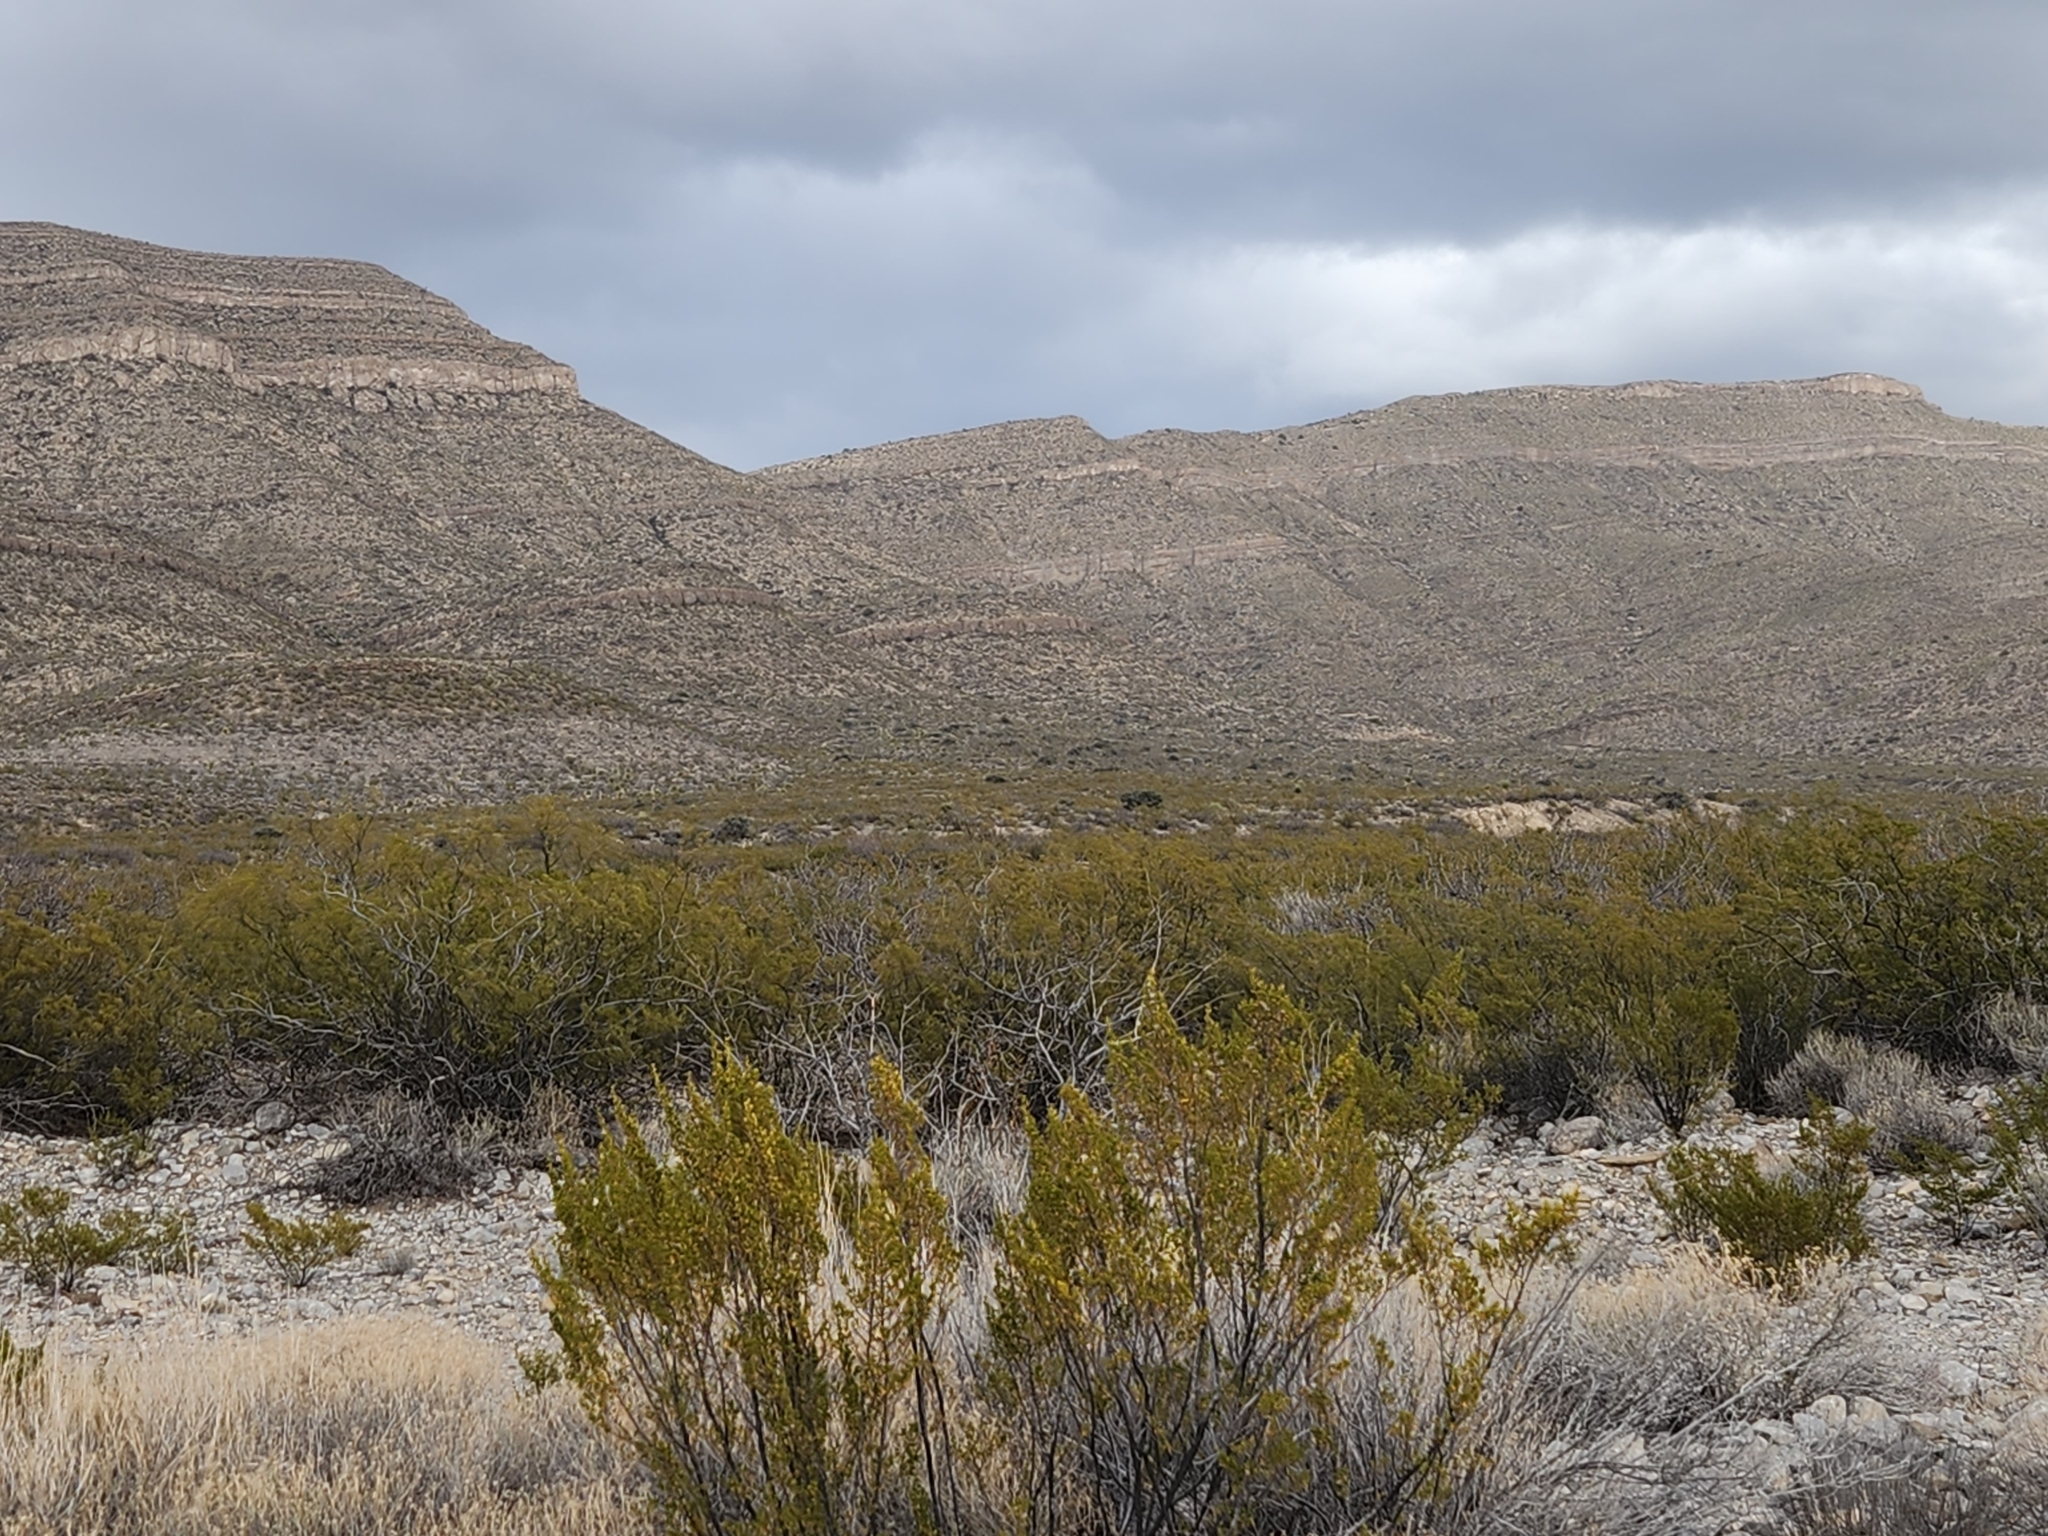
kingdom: Plantae
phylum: Tracheophyta
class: Magnoliopsida
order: Zygophyllales
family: Zygophyllaceae
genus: Larrea
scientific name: Larrea tridentata
